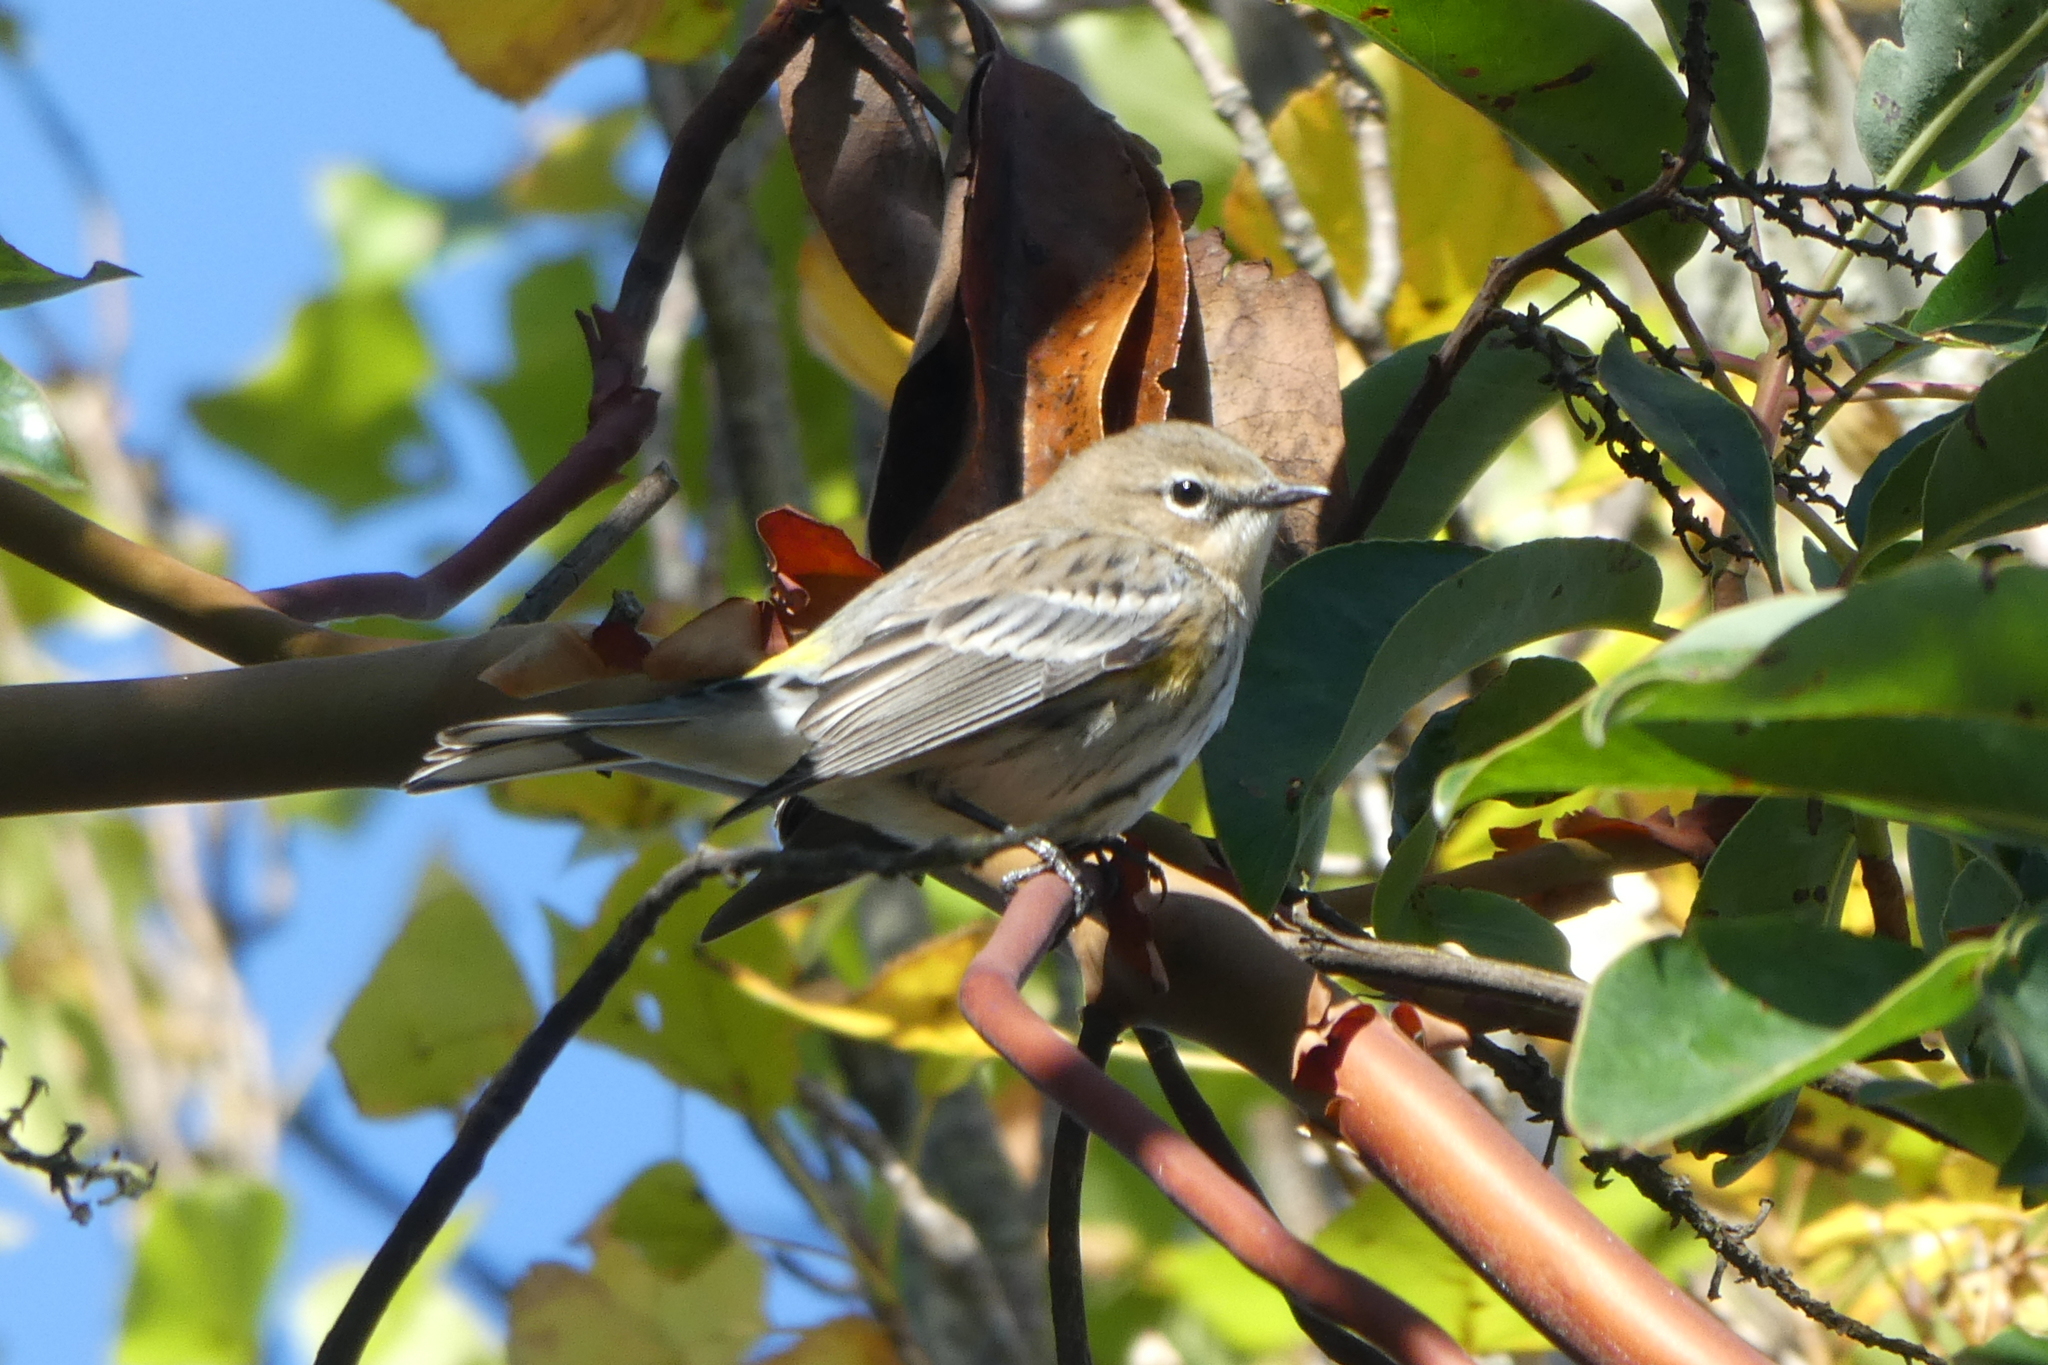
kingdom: Animalia
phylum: Chordata
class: Aves
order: Passeriformes
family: Parulidae
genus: Setophaga
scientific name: Setophaga coronata
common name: Myrtle warbler
